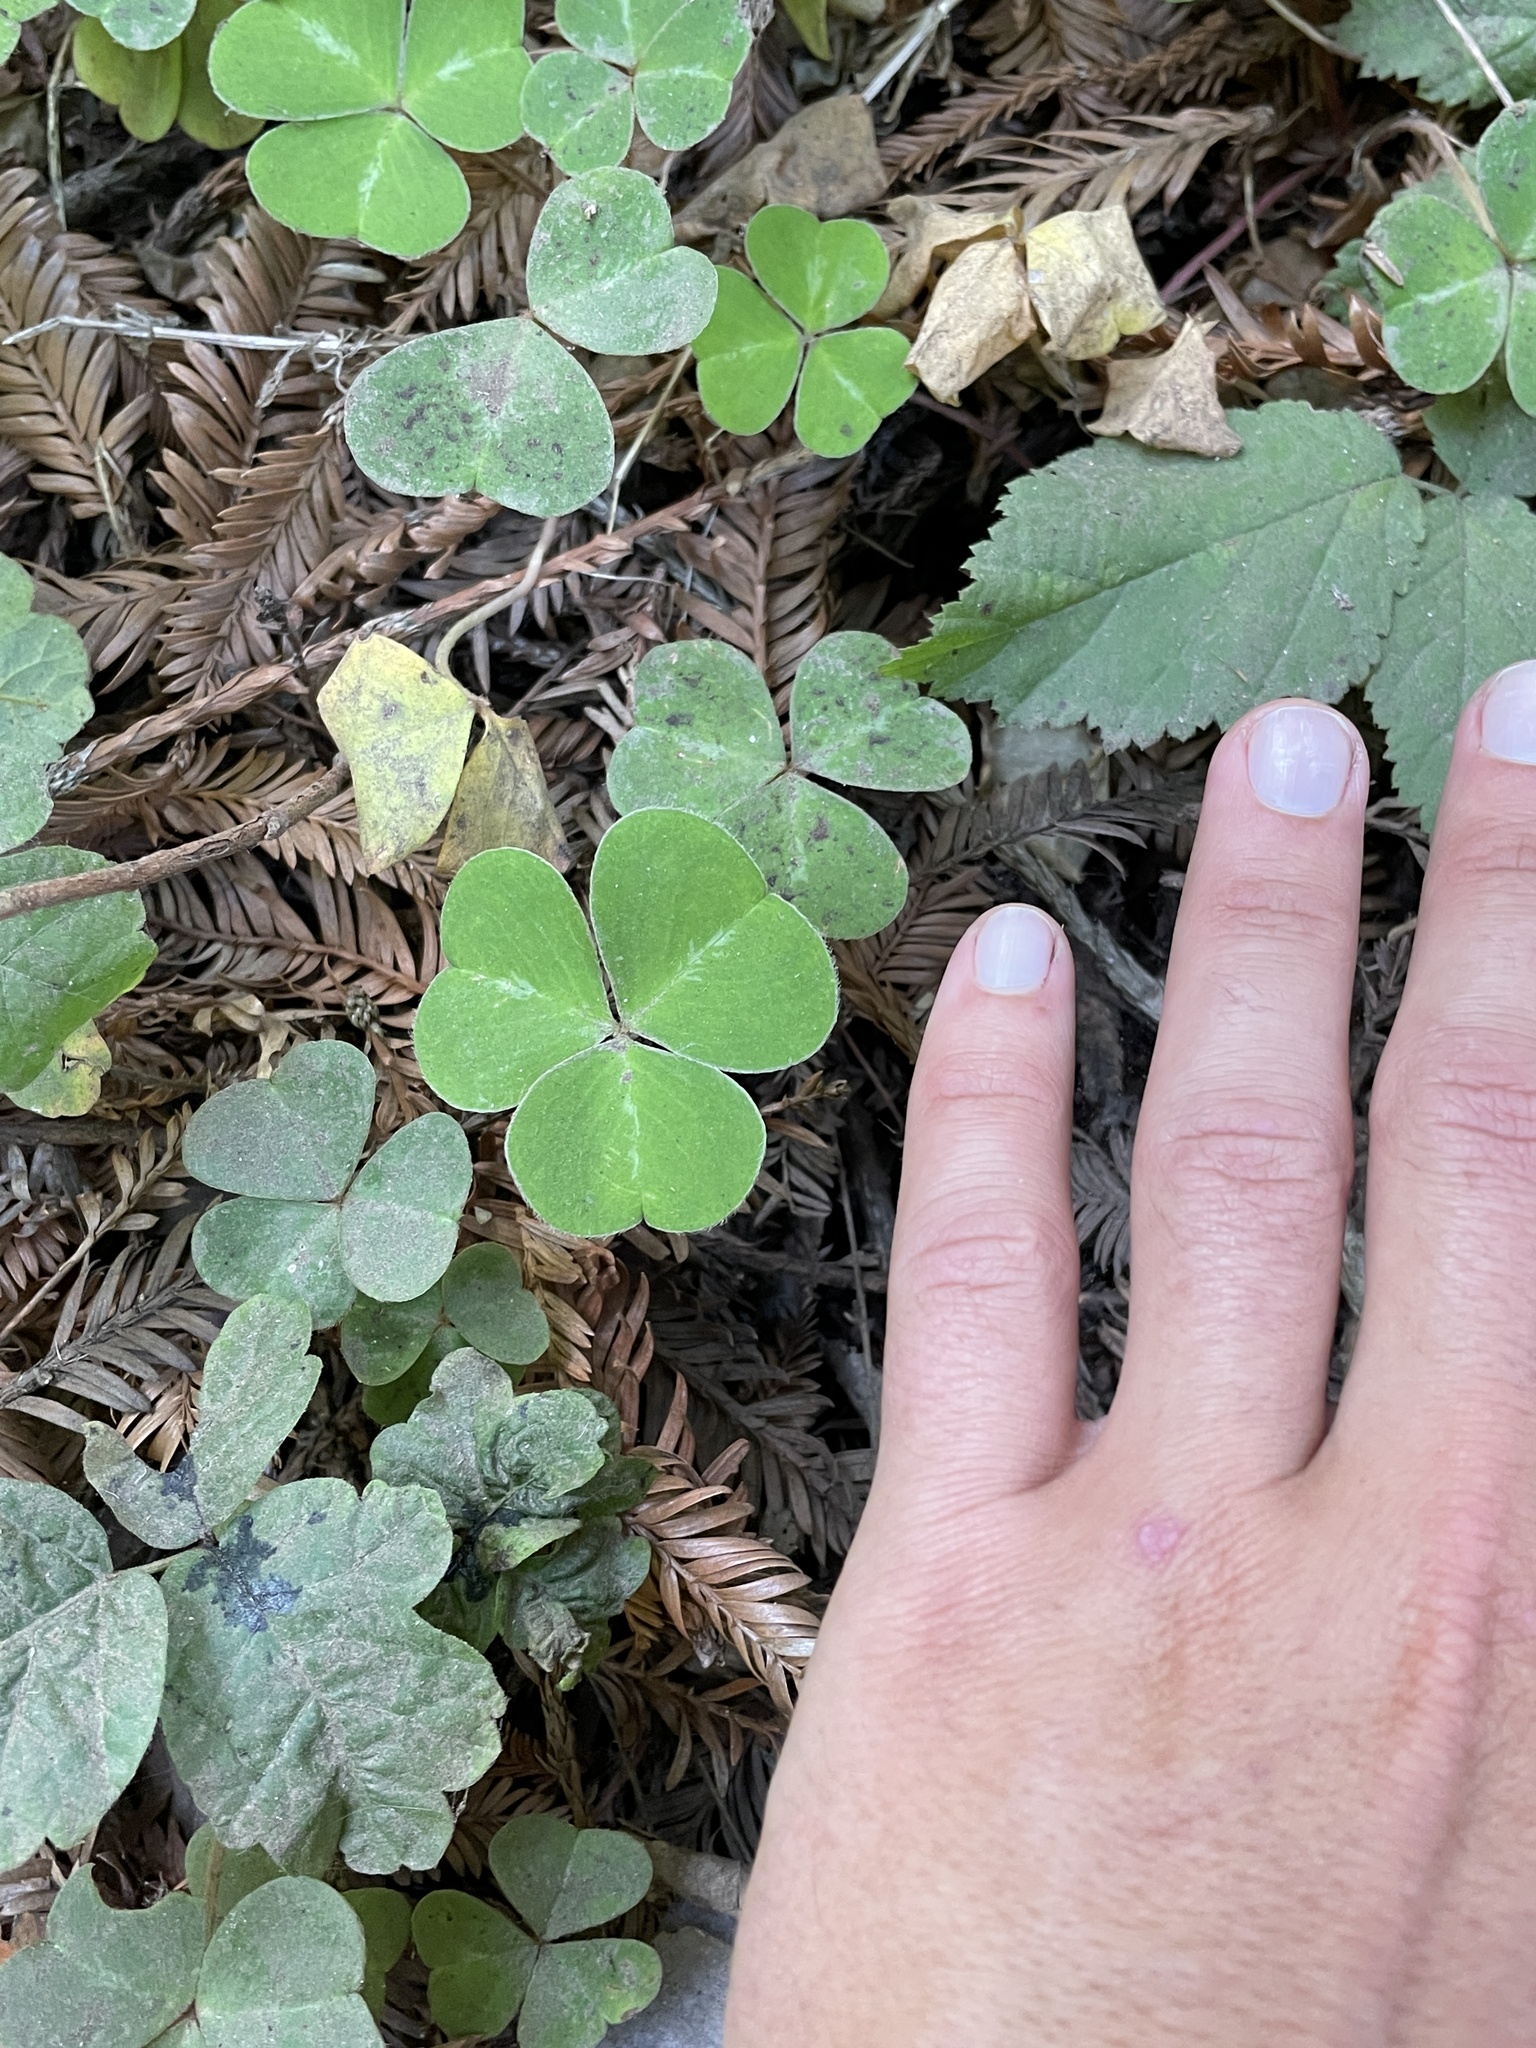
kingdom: Plantae
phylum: Tracheophyta
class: Magnoliopsida
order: Oxalidales
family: Oxalidaceae
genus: Oxalis
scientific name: Oxalis oregana
